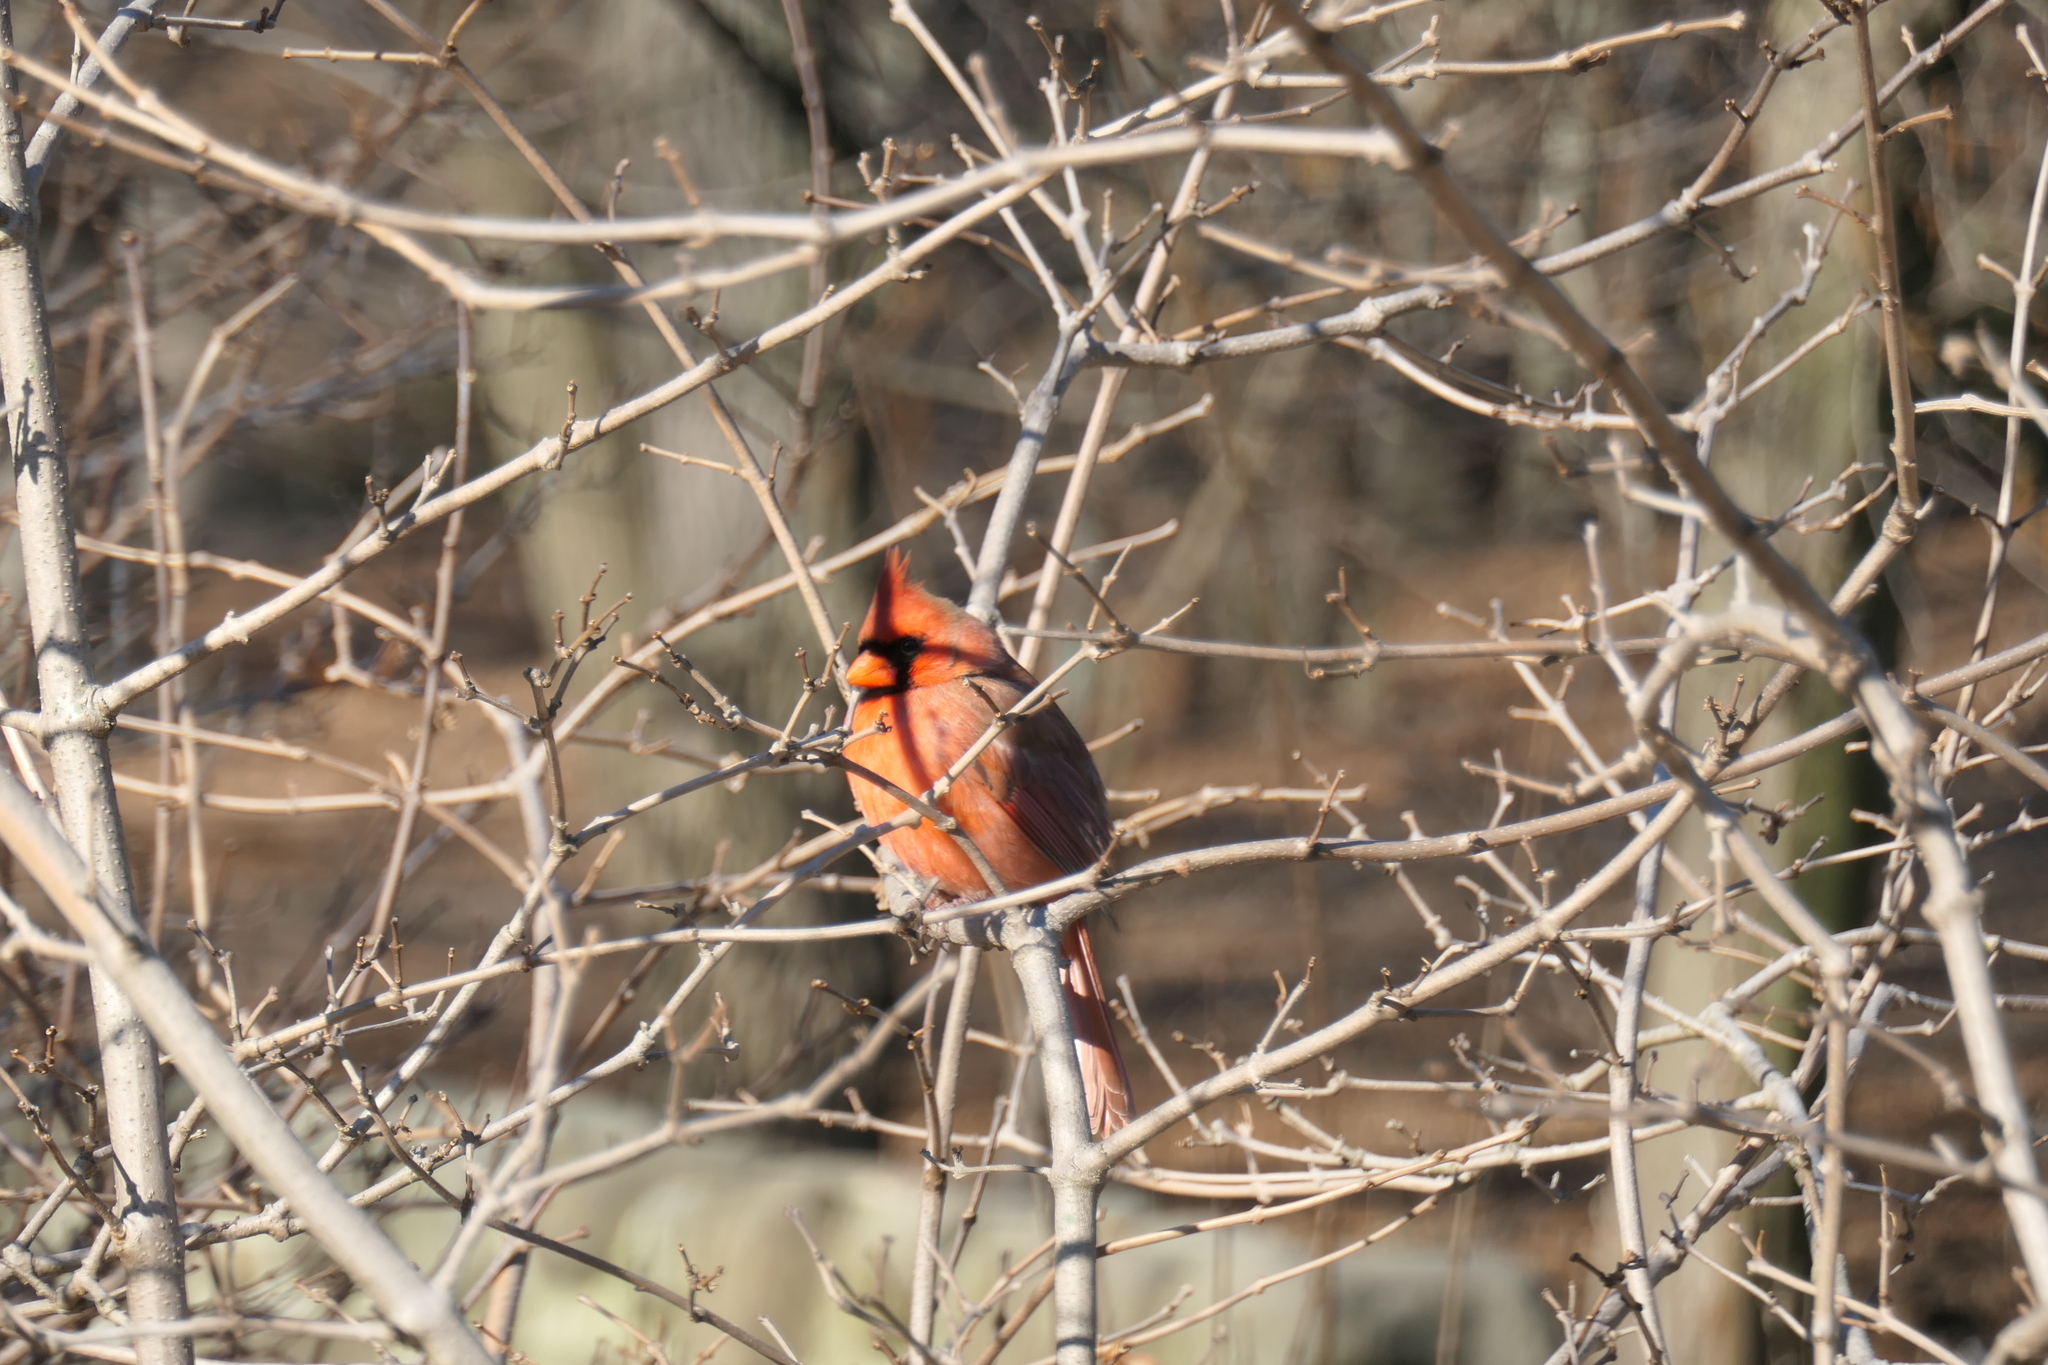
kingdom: Animalia
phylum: Chordata
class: Aves
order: Passeriformes
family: Cardinalidae
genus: Cardinalis
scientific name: Cardinalis cardinalis
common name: Northern cardinal
